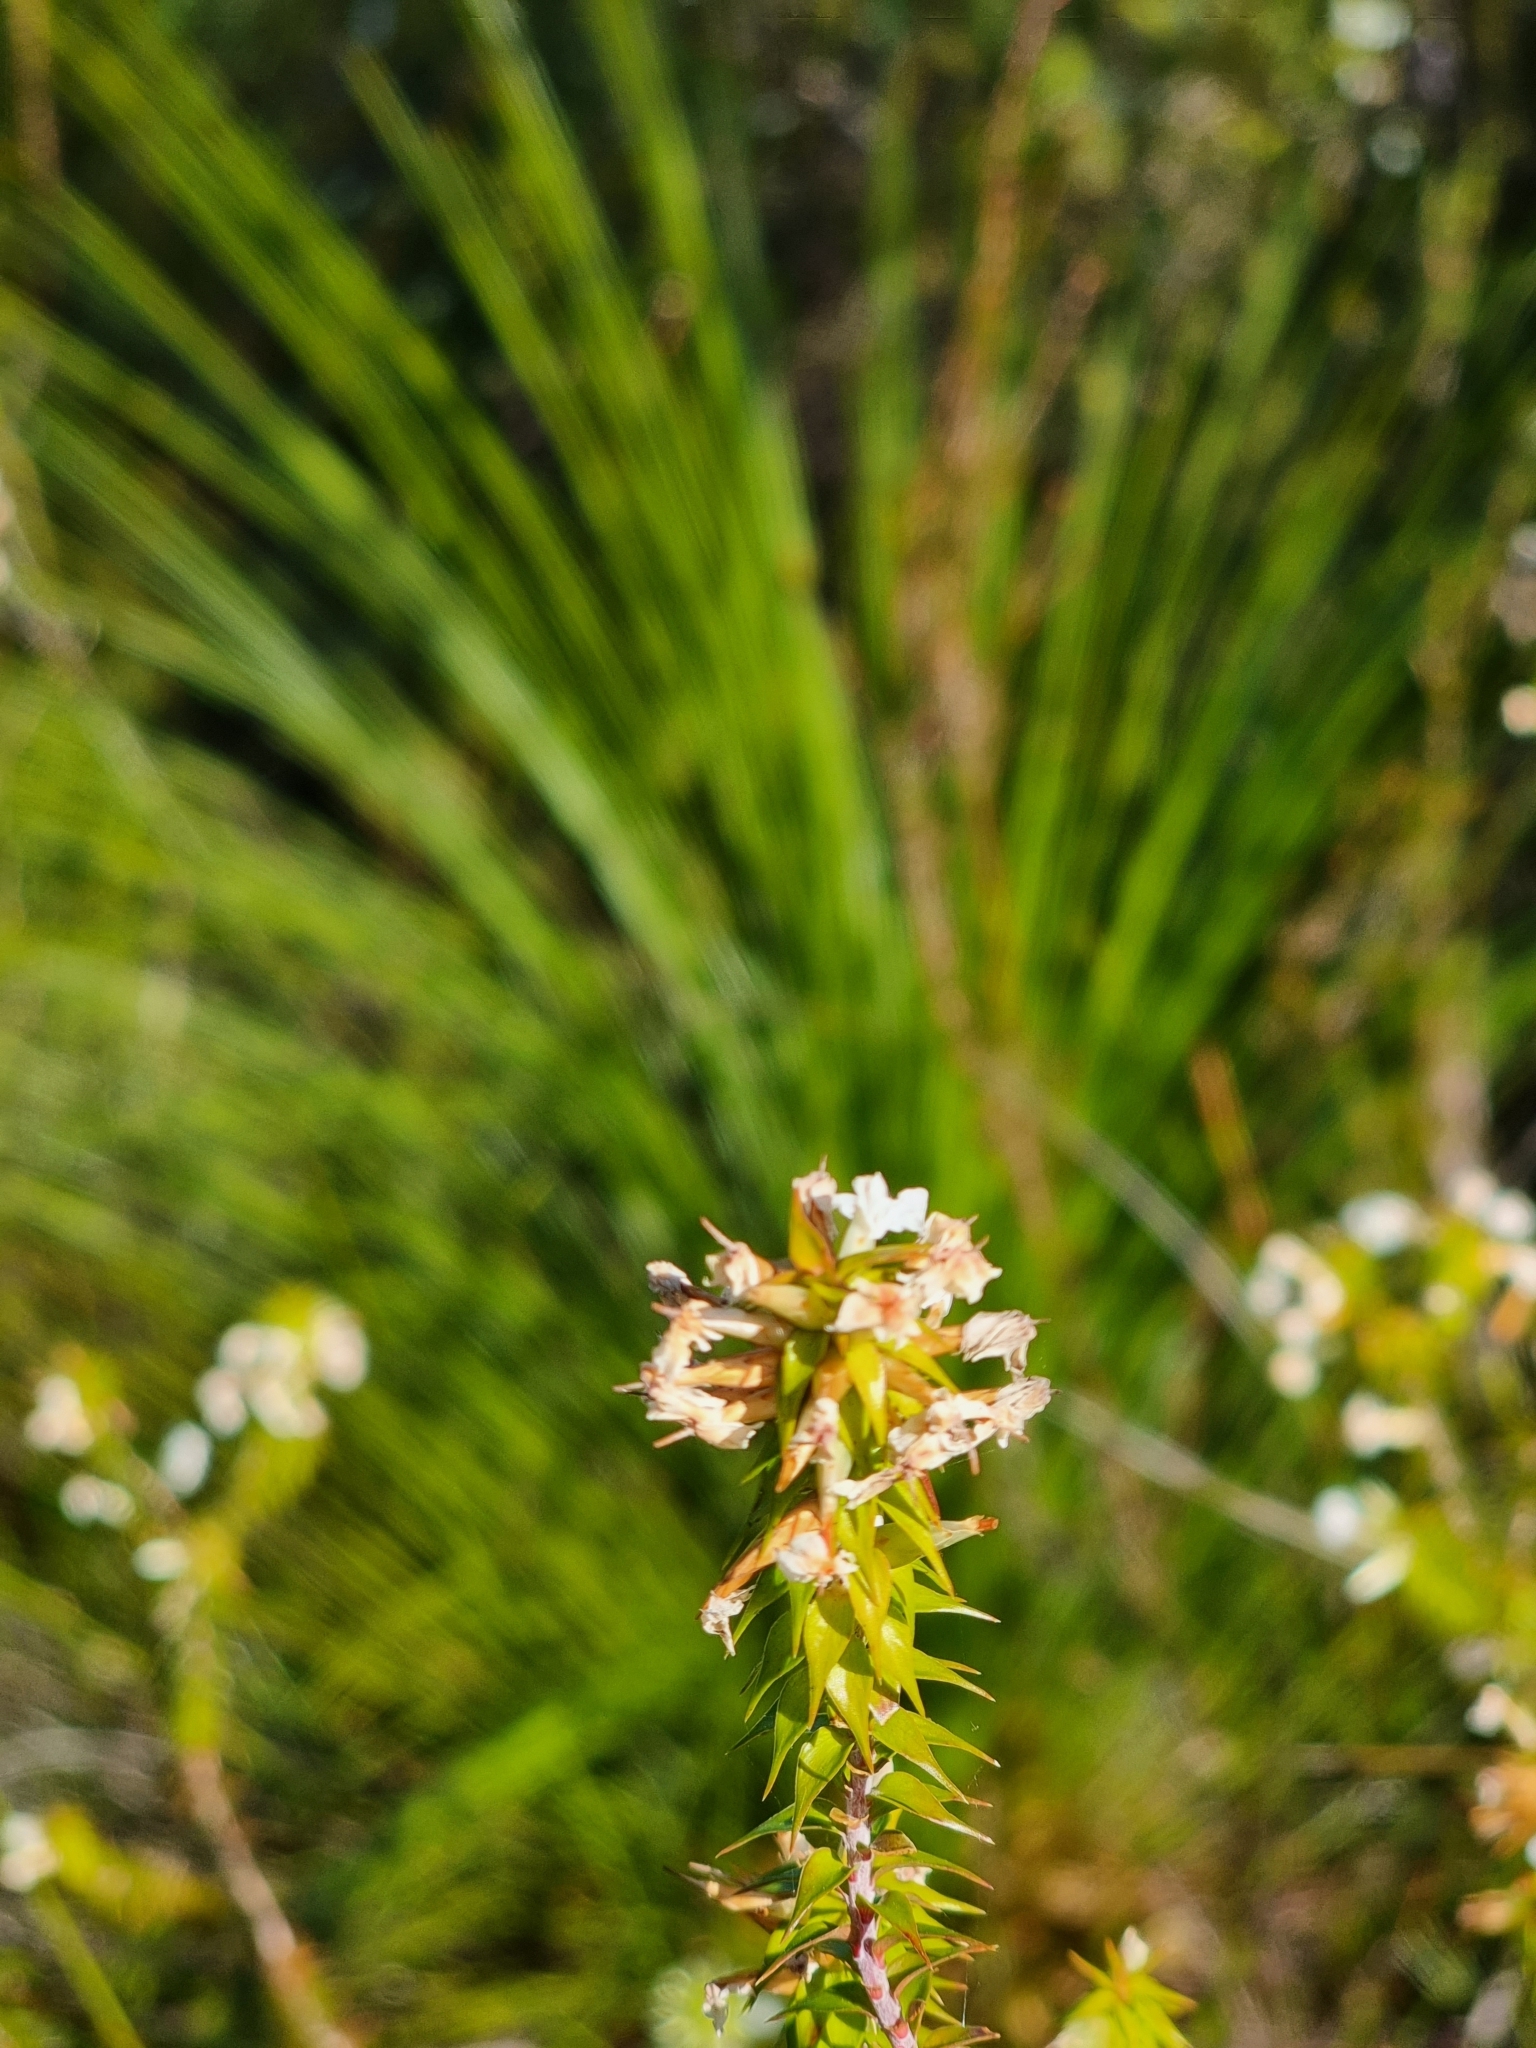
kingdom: Plantae
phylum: Tracheophyta
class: Magnoliopsida
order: Ericales
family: Ericaceae
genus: Woollsia
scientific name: Woollsia pungens
